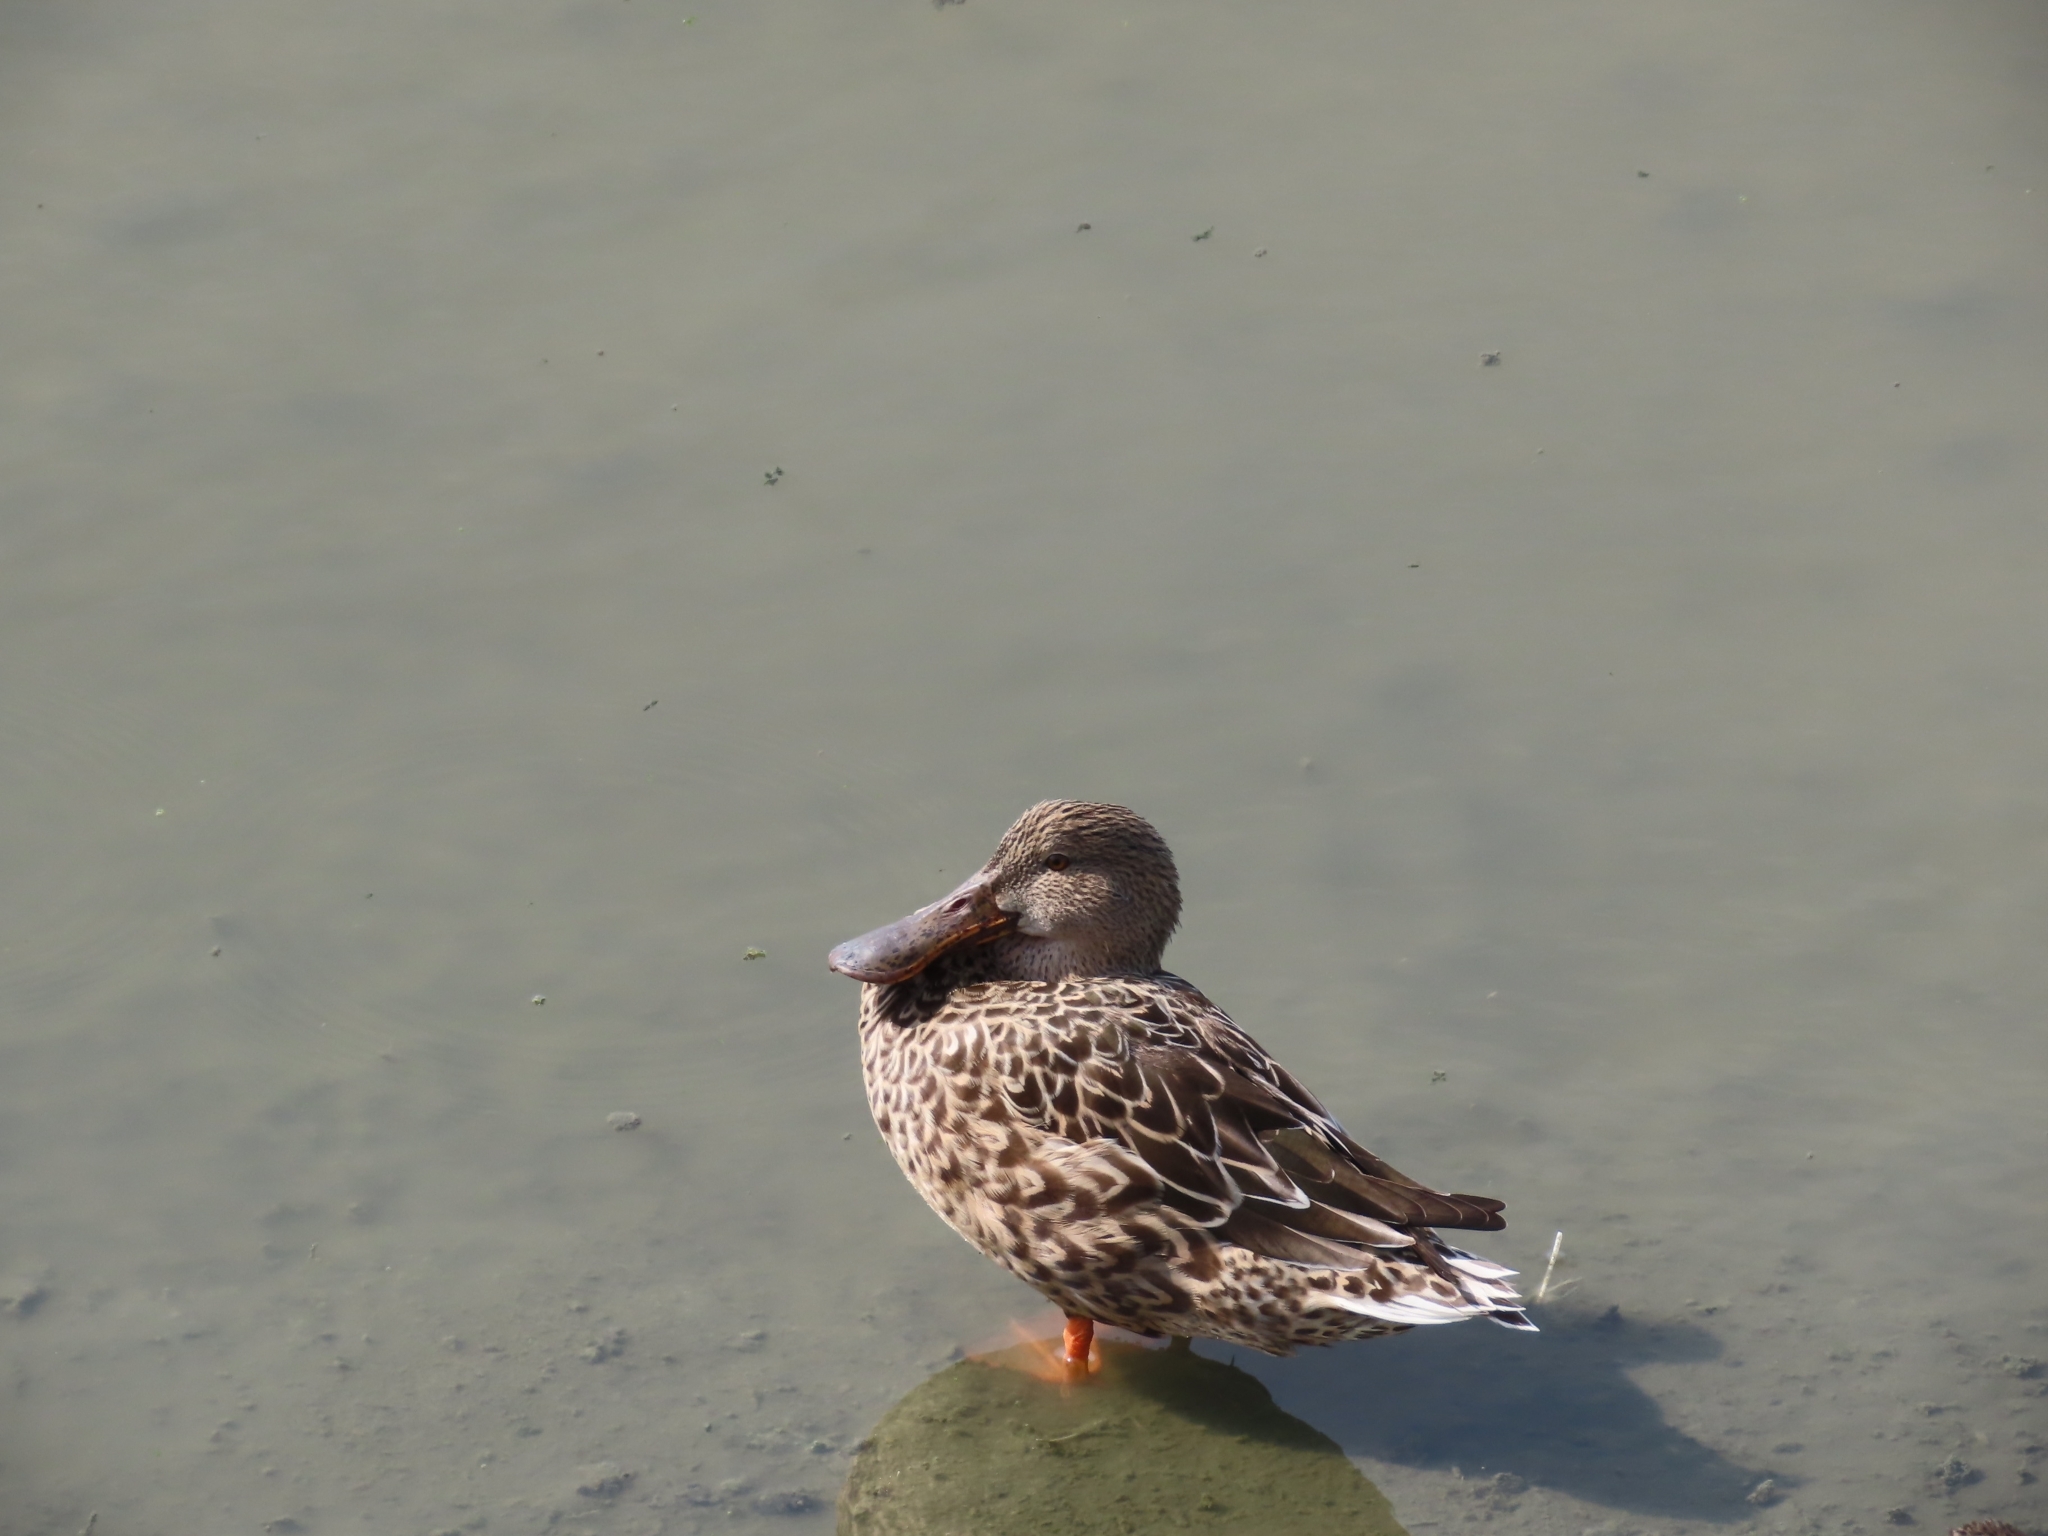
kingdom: Animalia
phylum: Chordata
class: Aves
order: Anseriformes
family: Anatidae
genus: Spatula
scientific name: Spatula clypeata
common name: Northern shoveler
